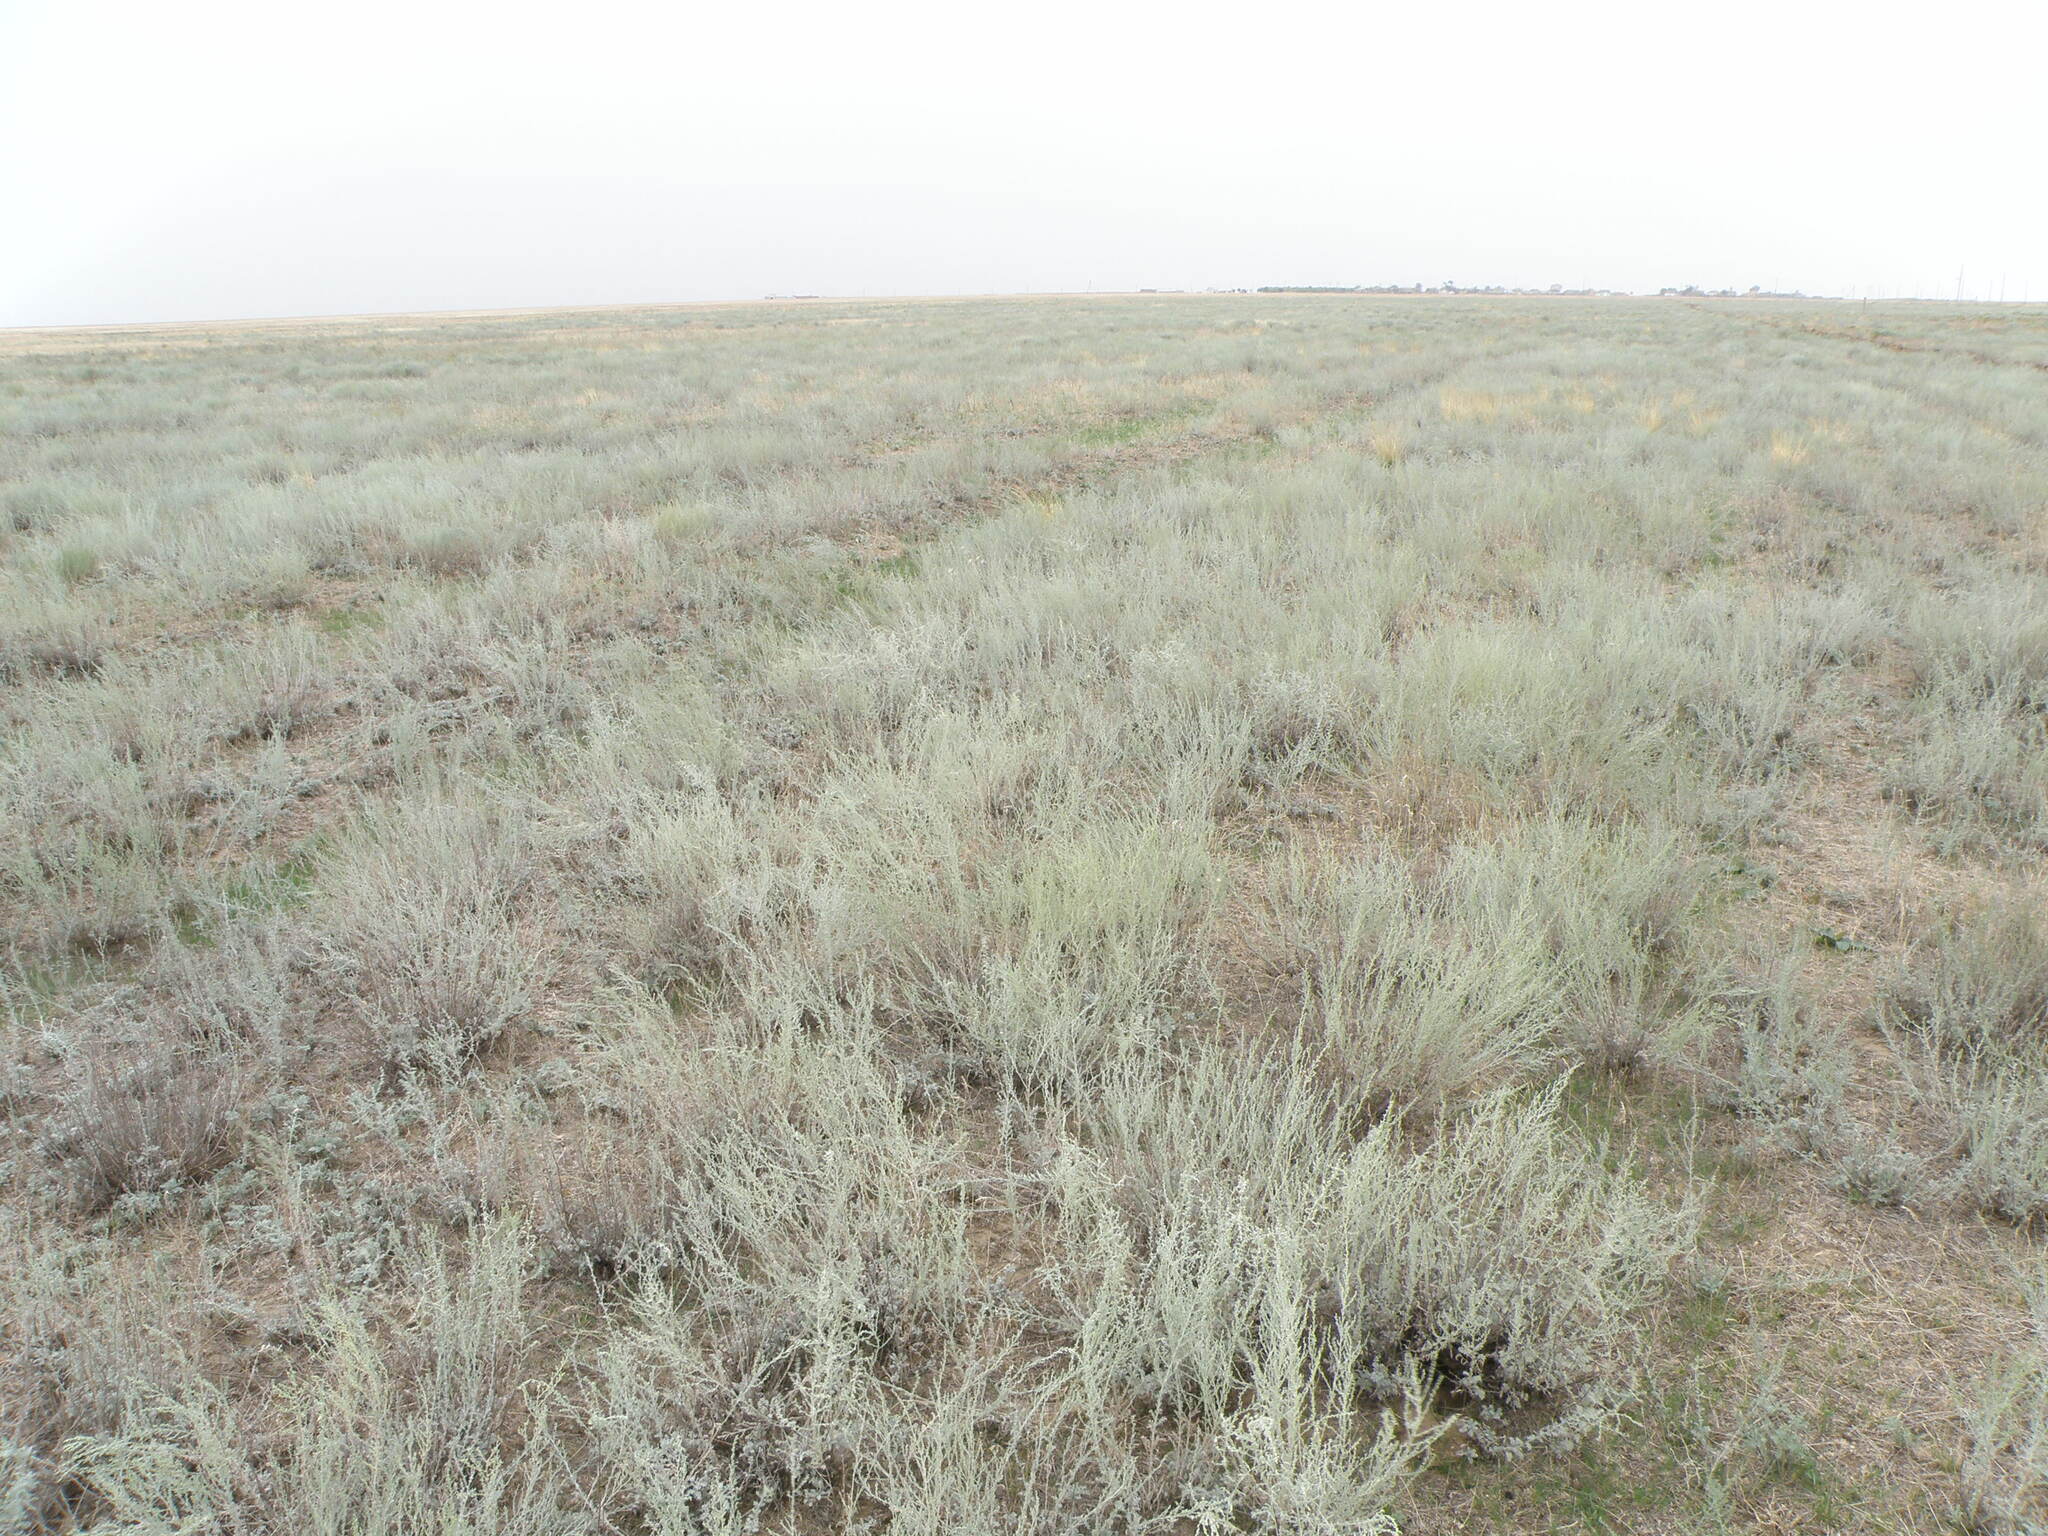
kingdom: Plantae
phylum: Tracheophyta
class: Magnoliopsida
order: Asterales
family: Asteraceae
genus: Artemisia
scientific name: Artemisia santonicum
